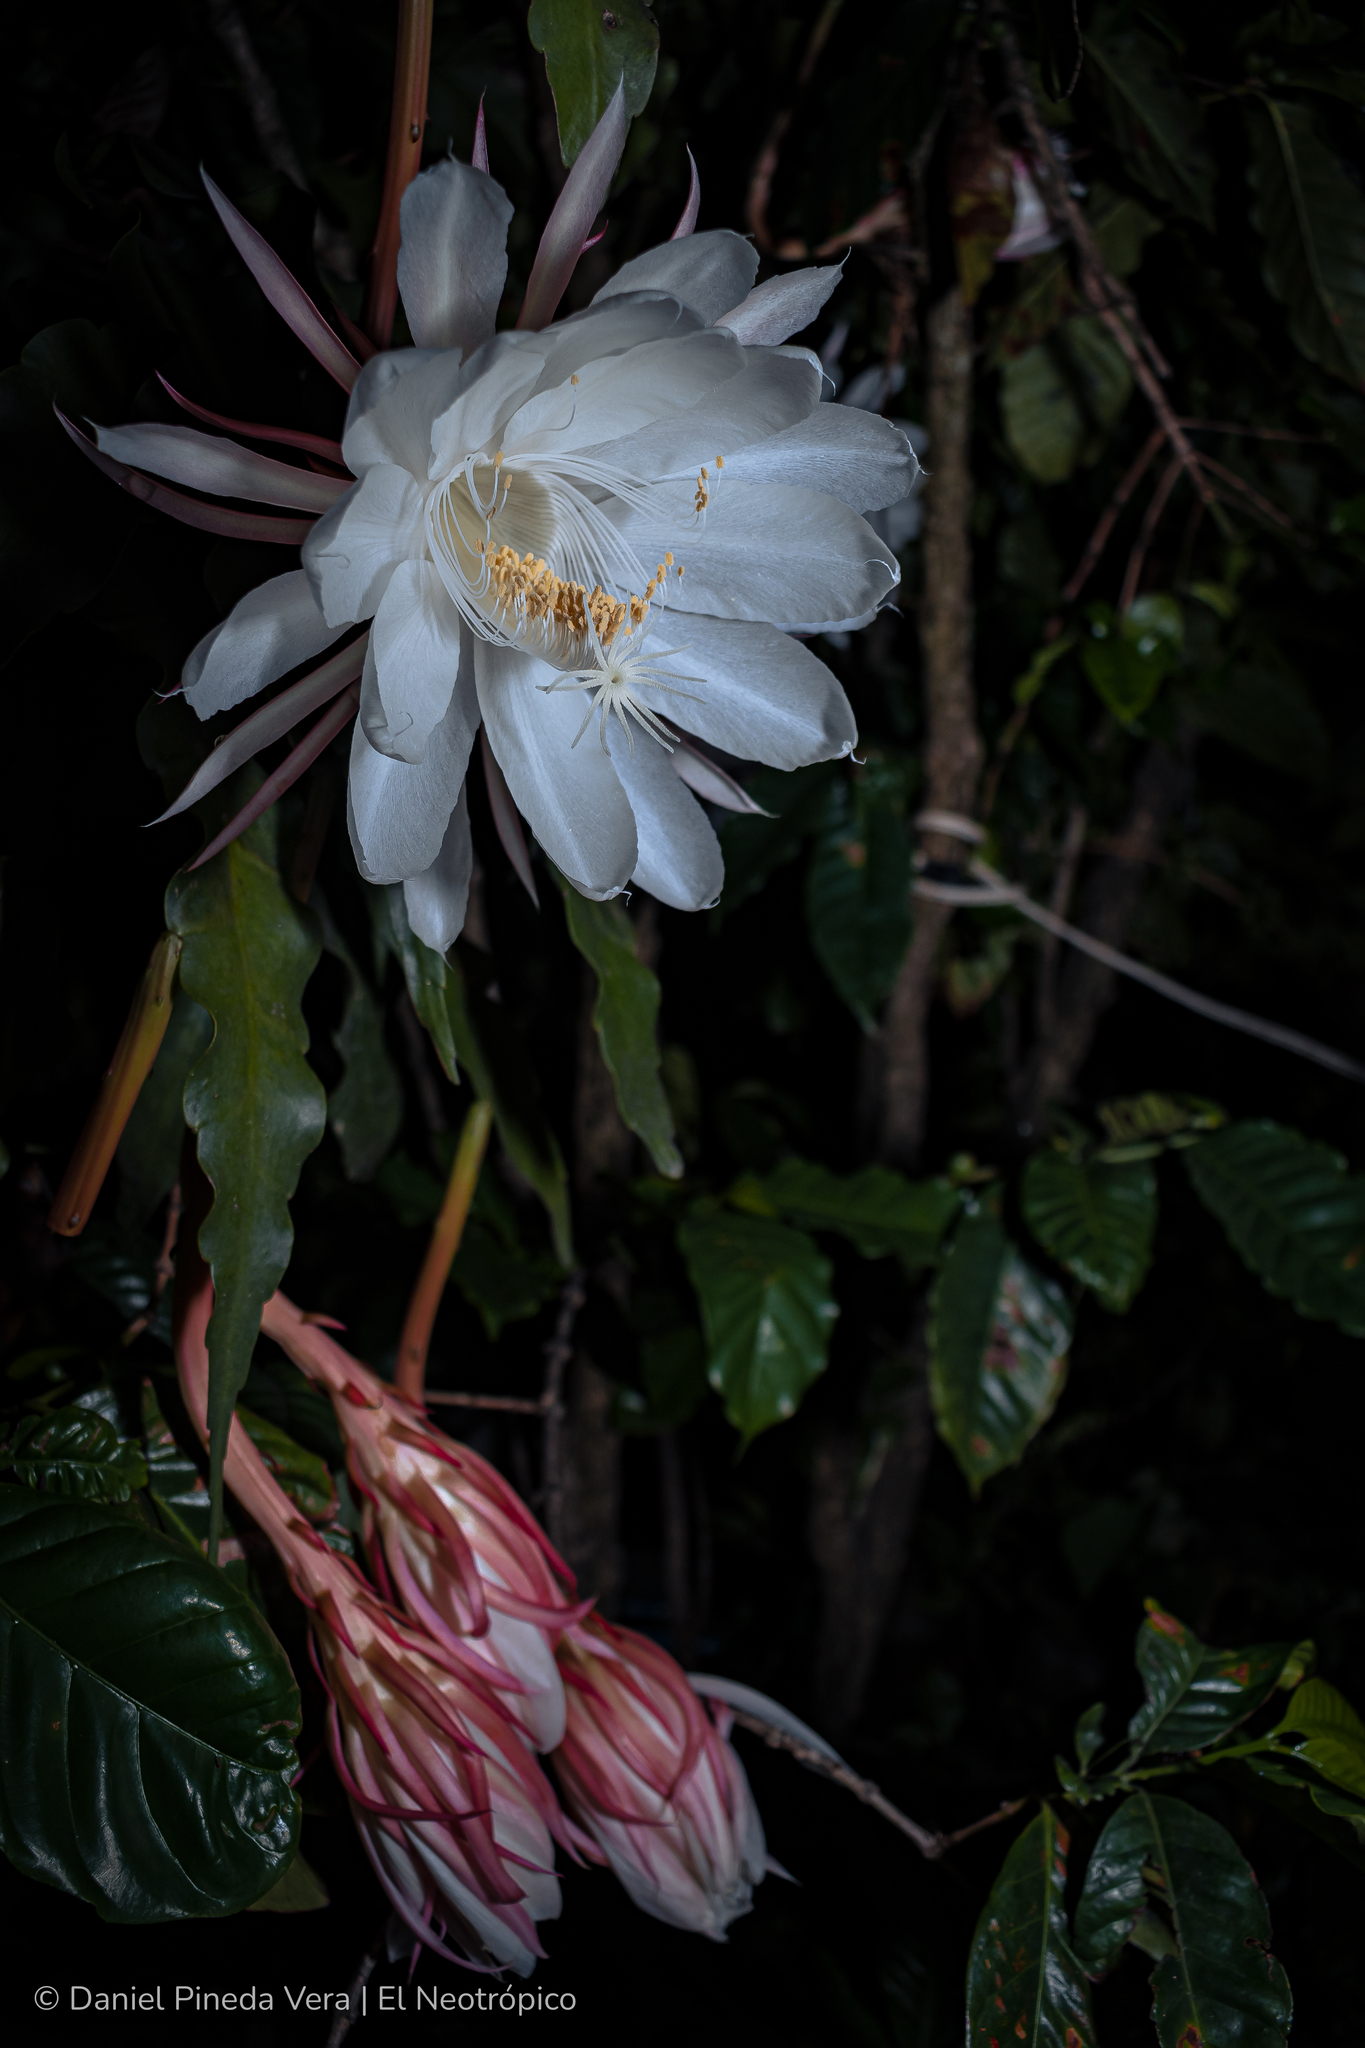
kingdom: Plantae
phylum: Tracheophyta
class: Magnoliopsida
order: Caryophyllales
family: Cactaceae
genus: Epiphyllum
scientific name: Epiphyllum oxypetalum
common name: Dutchman's pipe cactus
